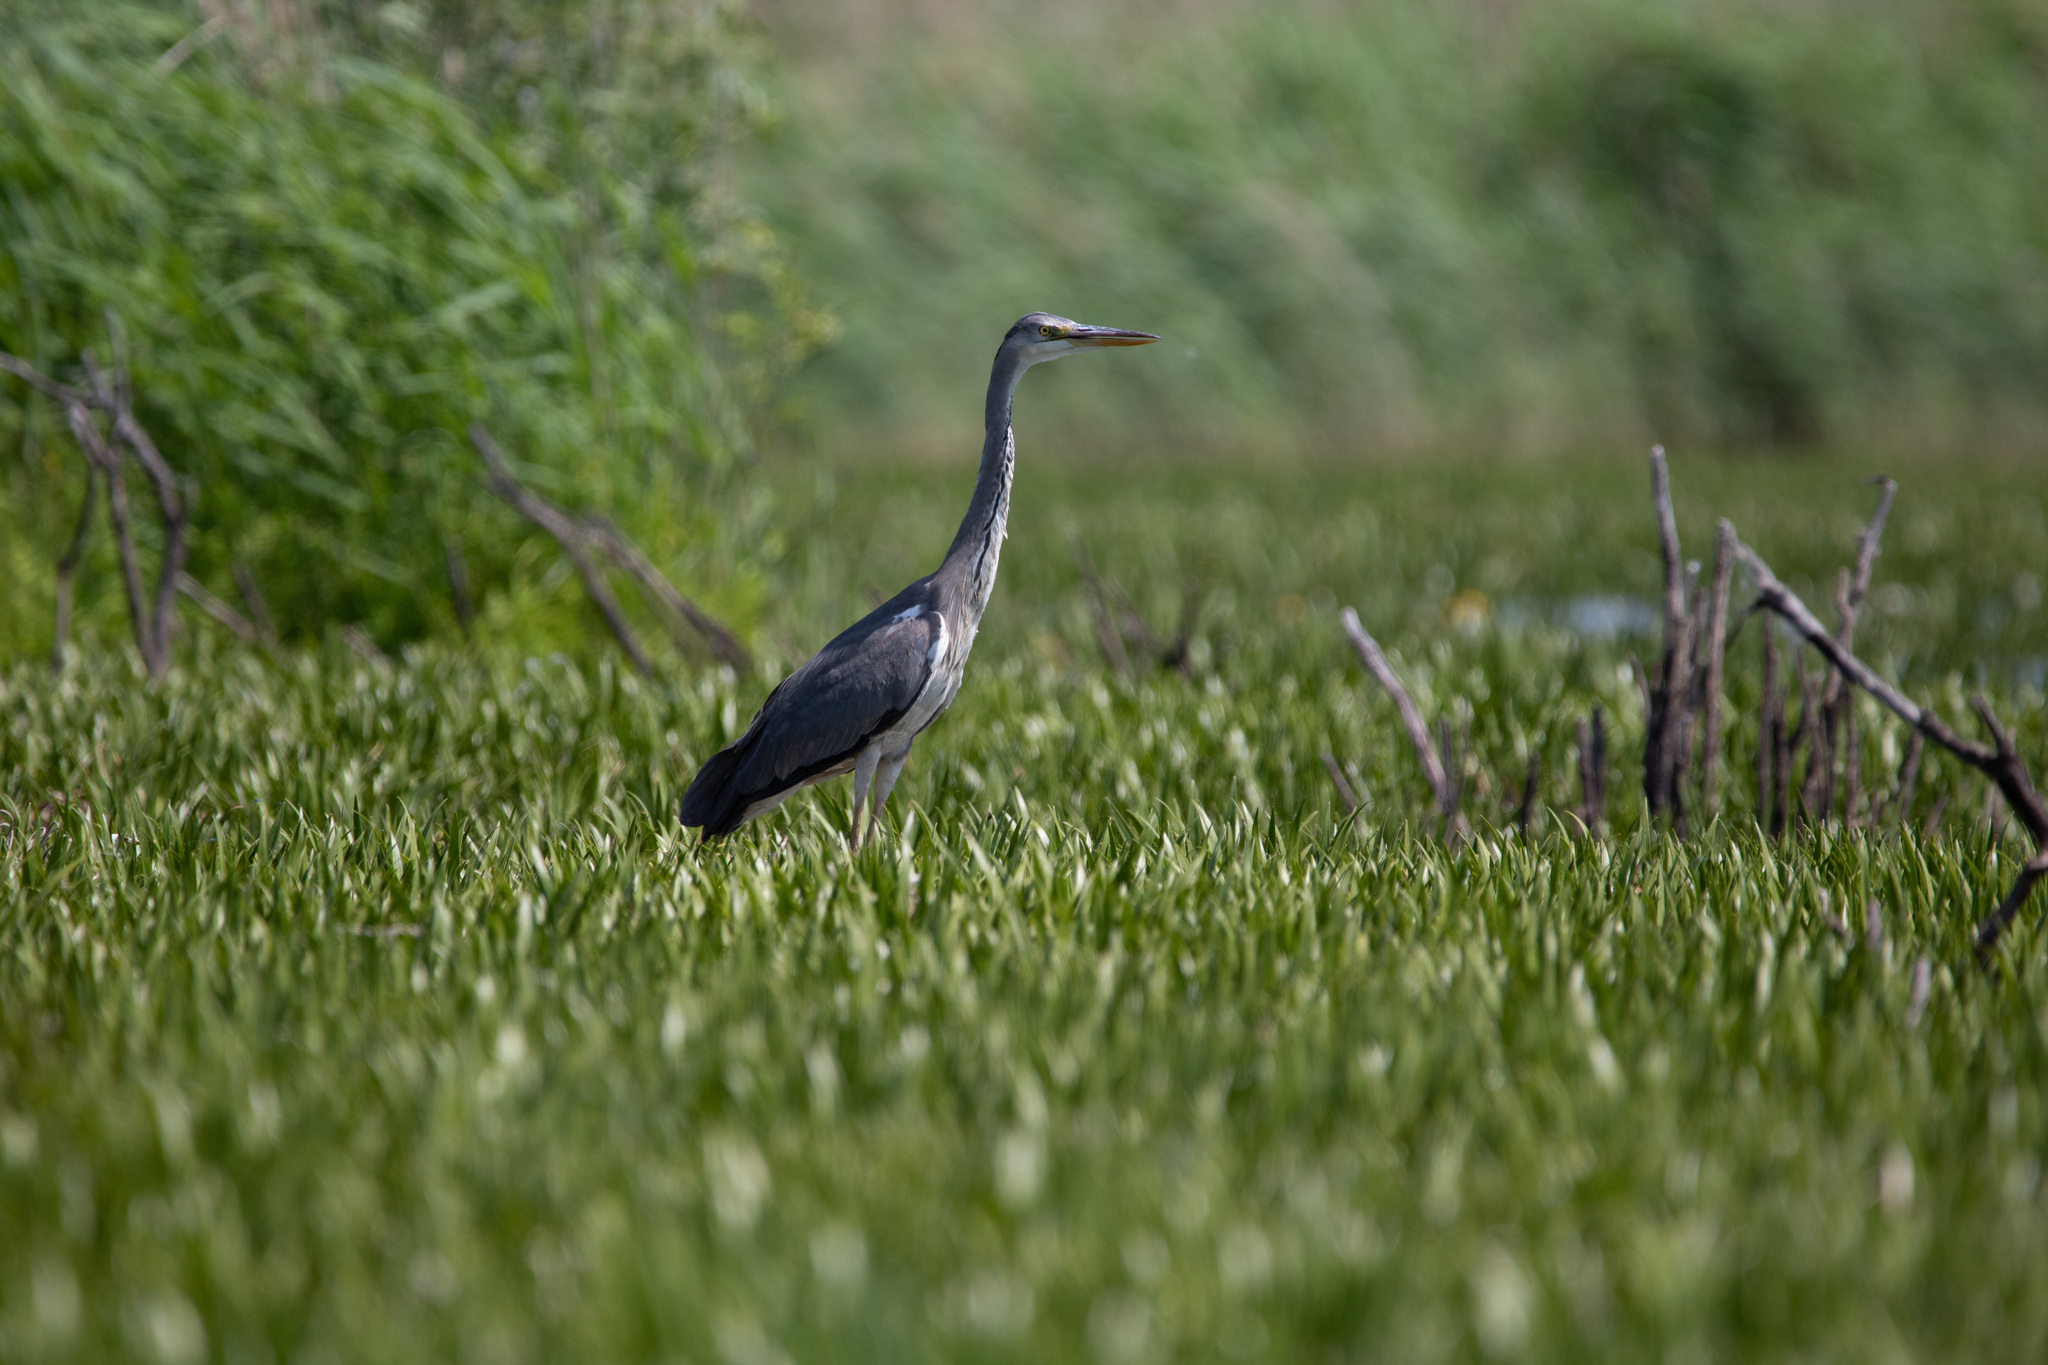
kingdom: Animalia
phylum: Chordata
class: Aves
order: Pelecaniformes
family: Ardeidae
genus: Ardea
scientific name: Ardea cinerea
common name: Grey heron
